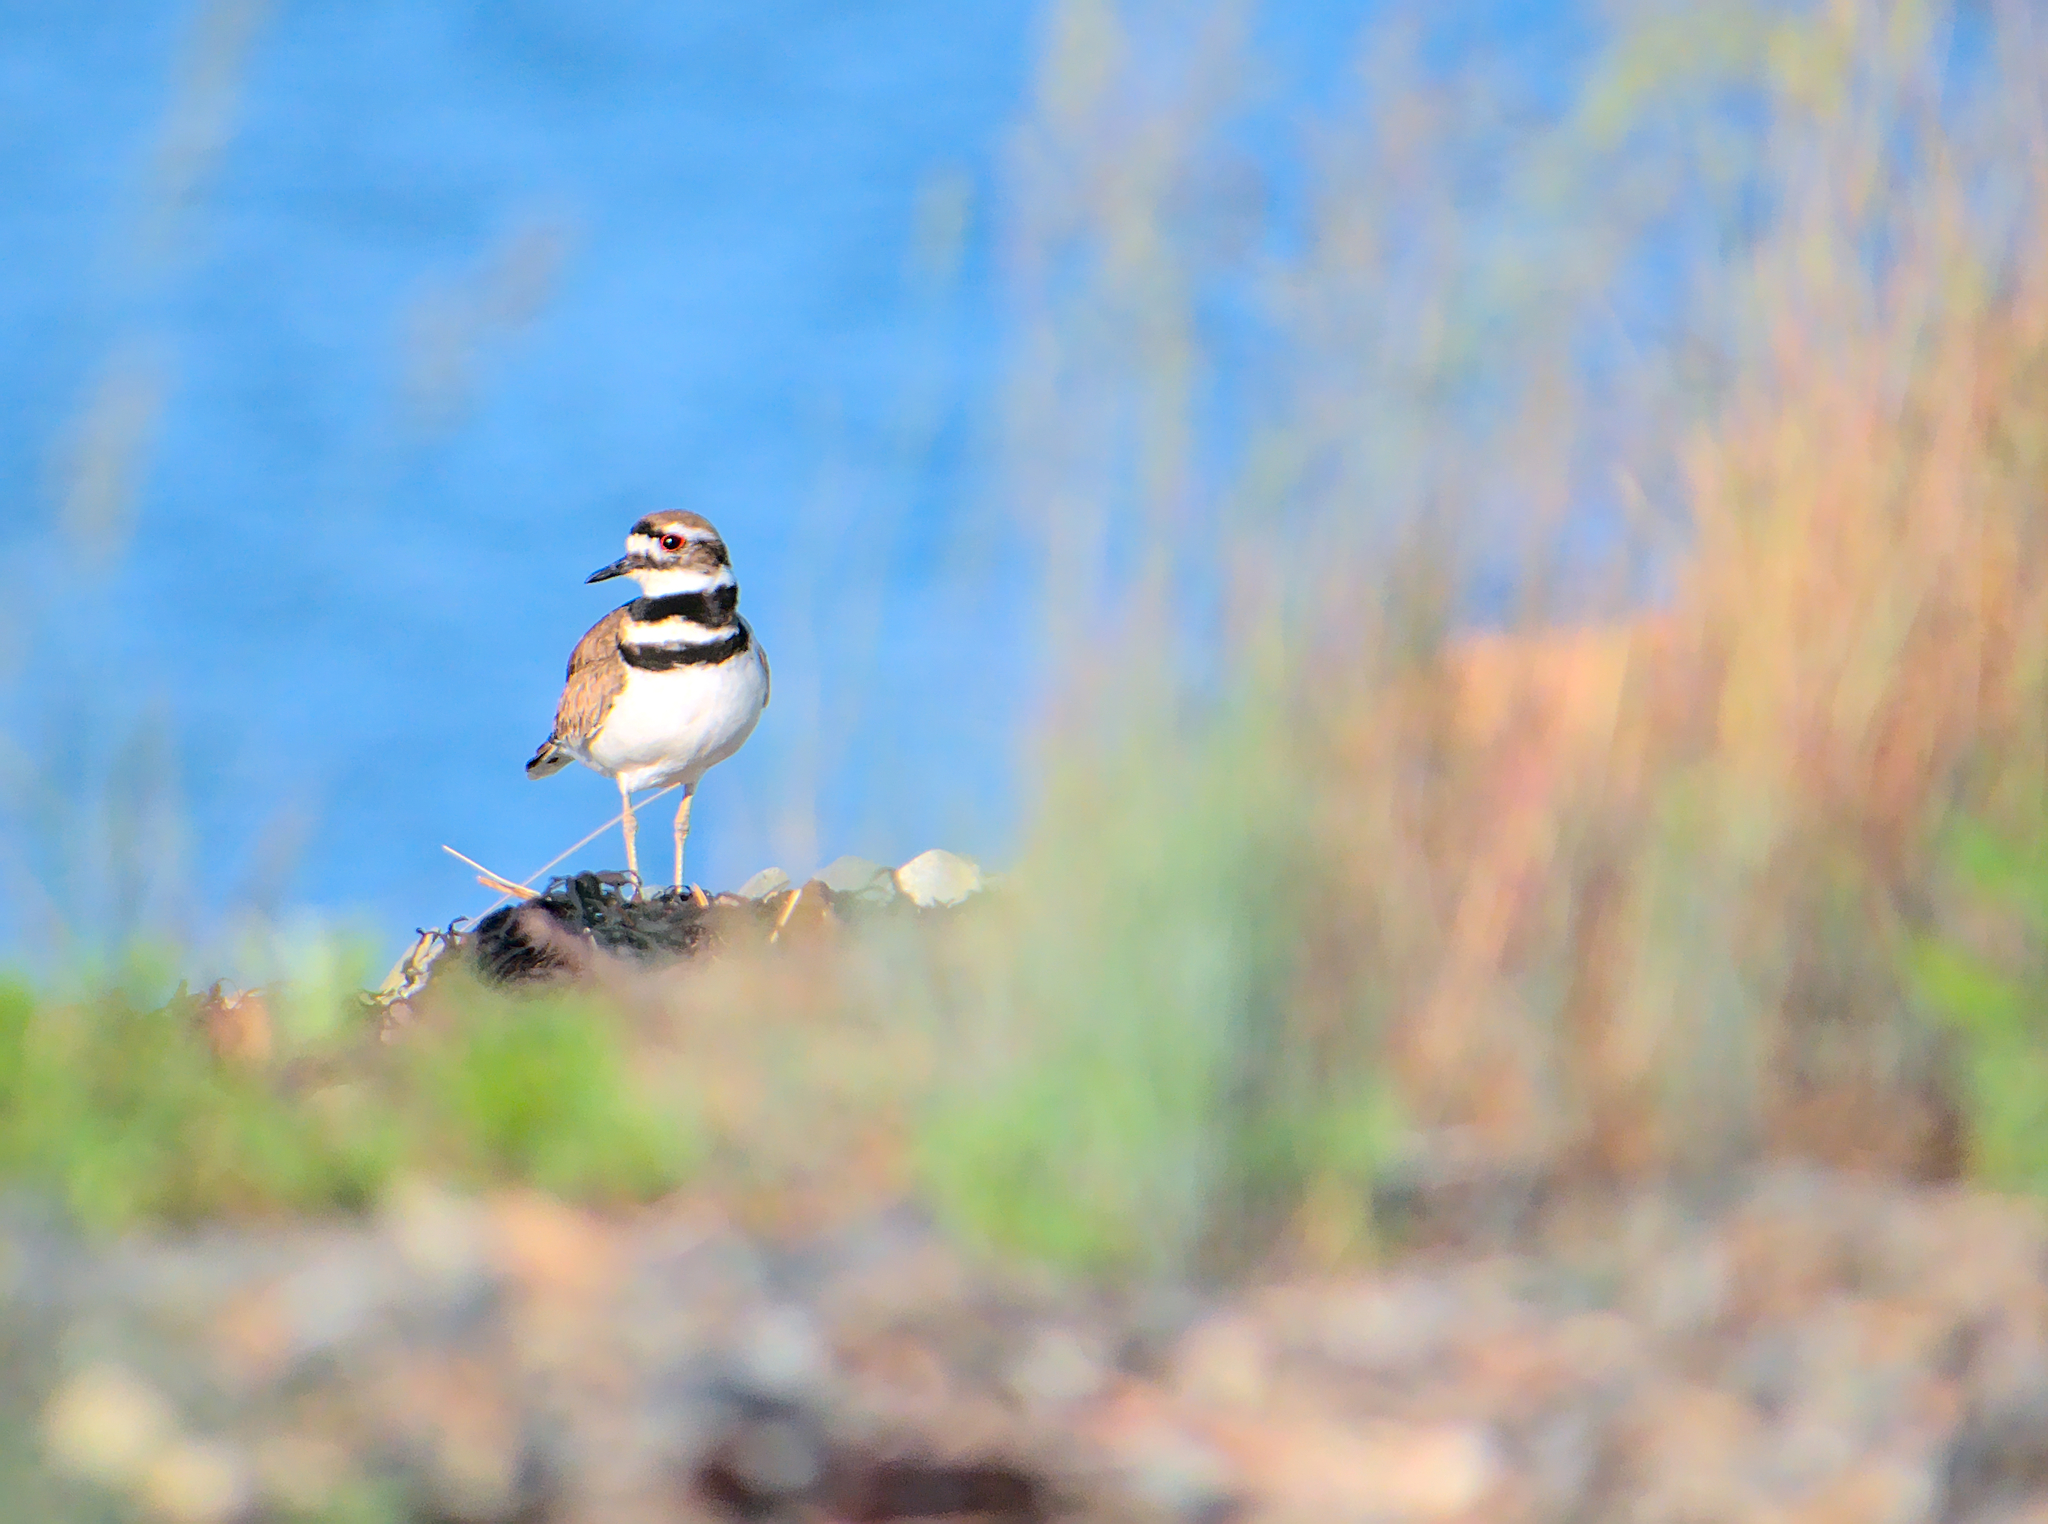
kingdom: Animalia
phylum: Chordata
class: Aves
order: Charadriiformes
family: Charadriidae
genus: Charadrius
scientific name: Charadrius vociferus
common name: Killdeer
